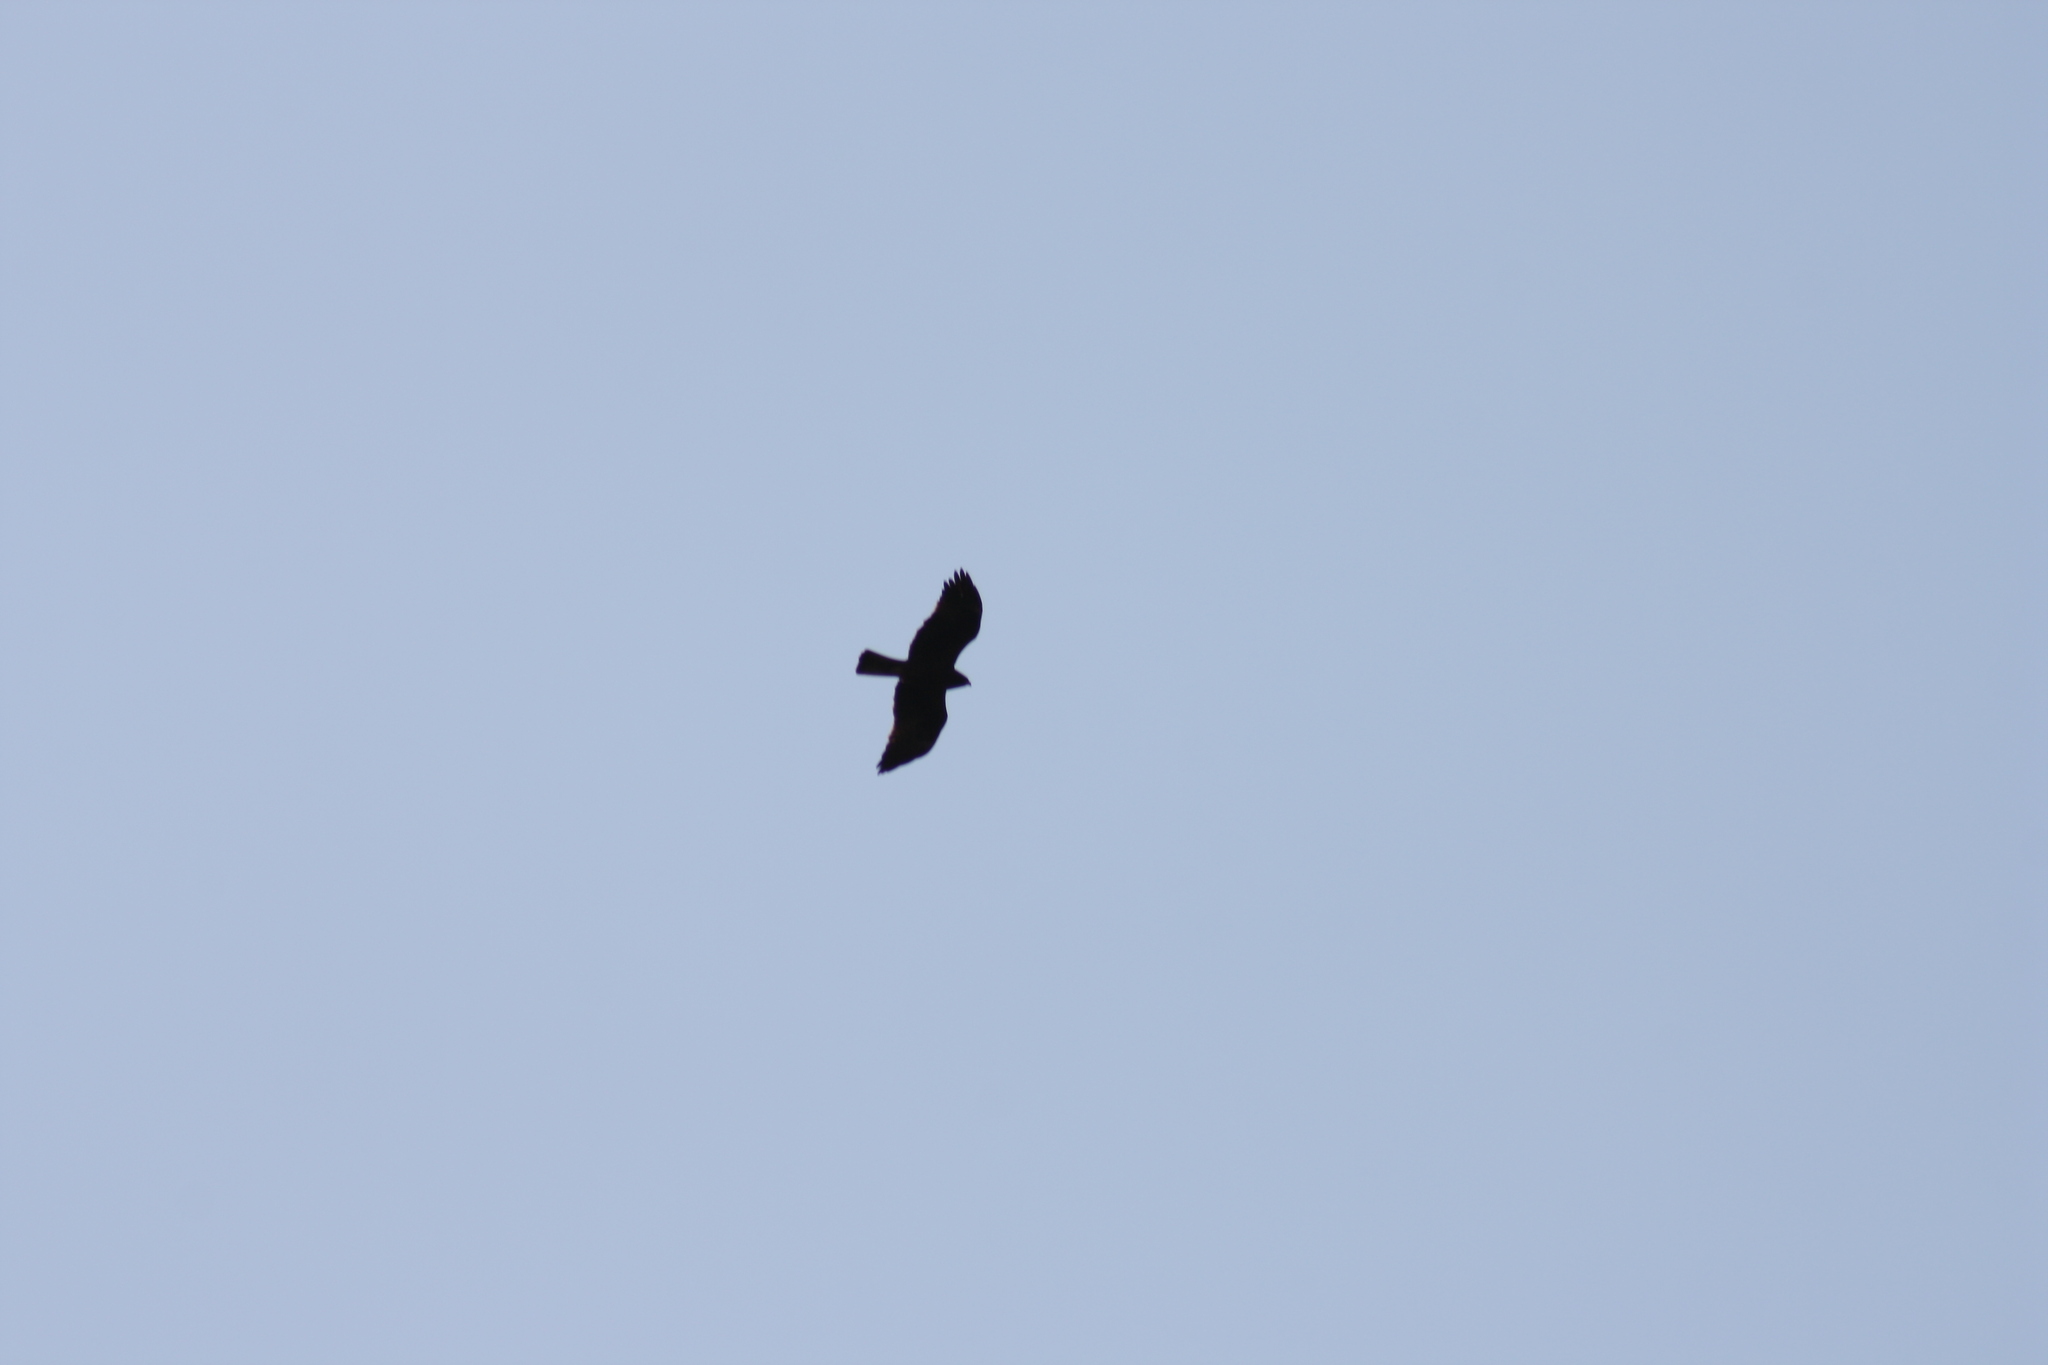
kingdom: Animalia
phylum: Chordata
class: Aves
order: Accipitriformes
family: Accipitridae
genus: Hieraaetus
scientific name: Hieraaetus pennatus
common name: Booted eagle
